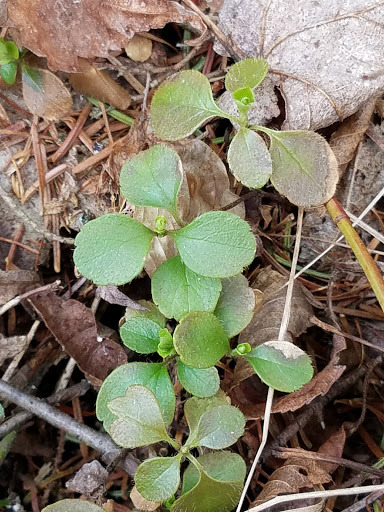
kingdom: Plantae
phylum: Tracheophyta
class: Magnoliopsida
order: Dipsacales
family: Caprifoliaceae
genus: Linnaea
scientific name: Linnaea borealis
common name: Twinflower
